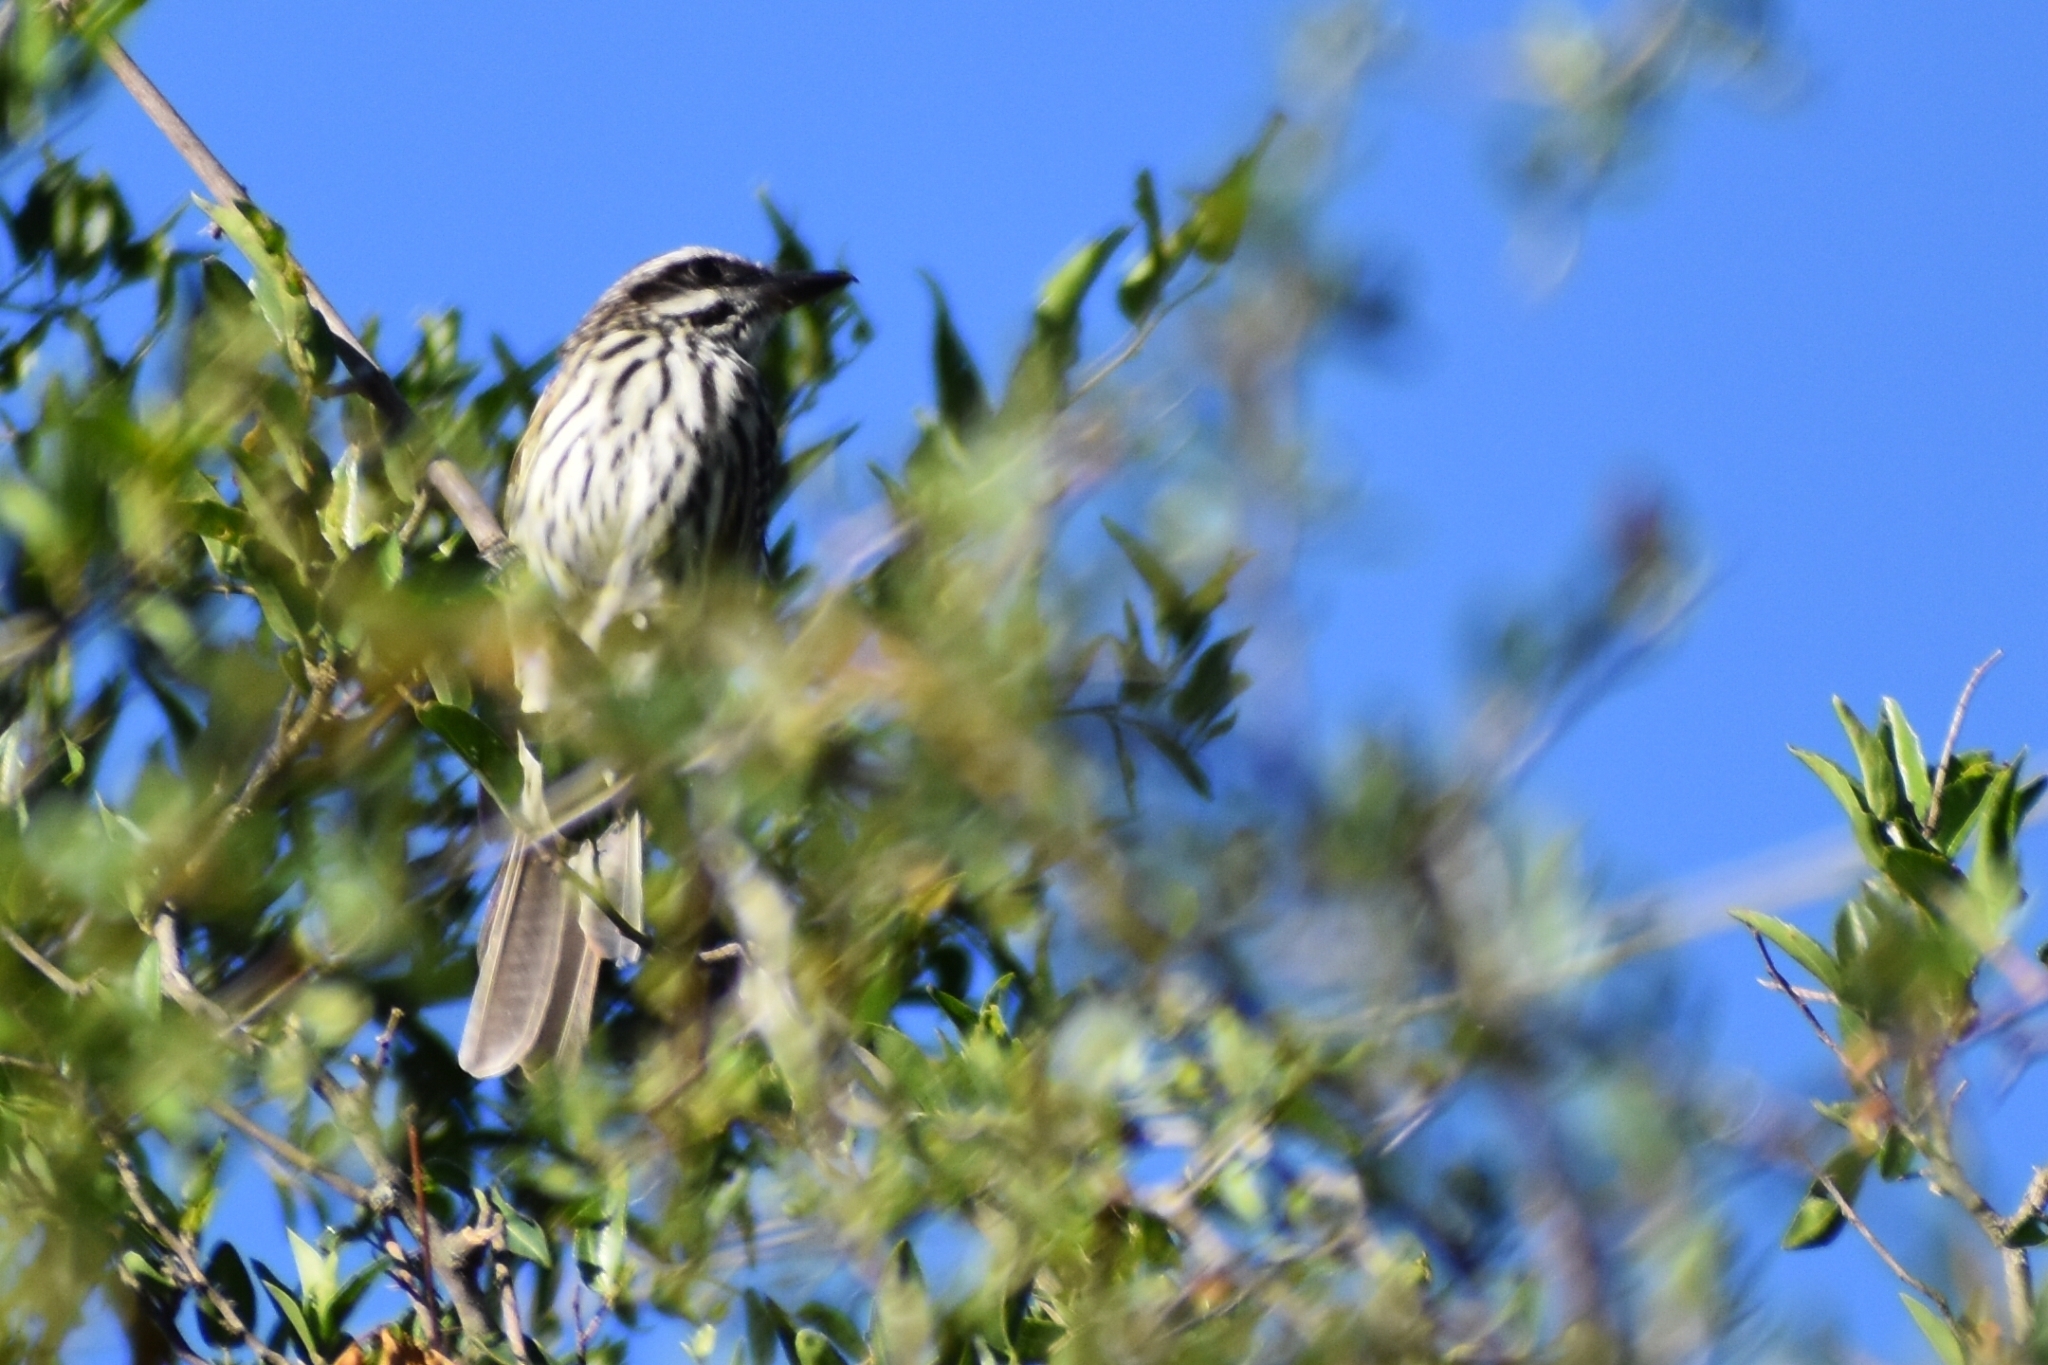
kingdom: Animalia
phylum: Chordata
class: Aves
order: Passeriformes
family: Tyrannidae
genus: Myiodynastes
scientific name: Myiodynastes maculatus
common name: Streaked flycatcher
